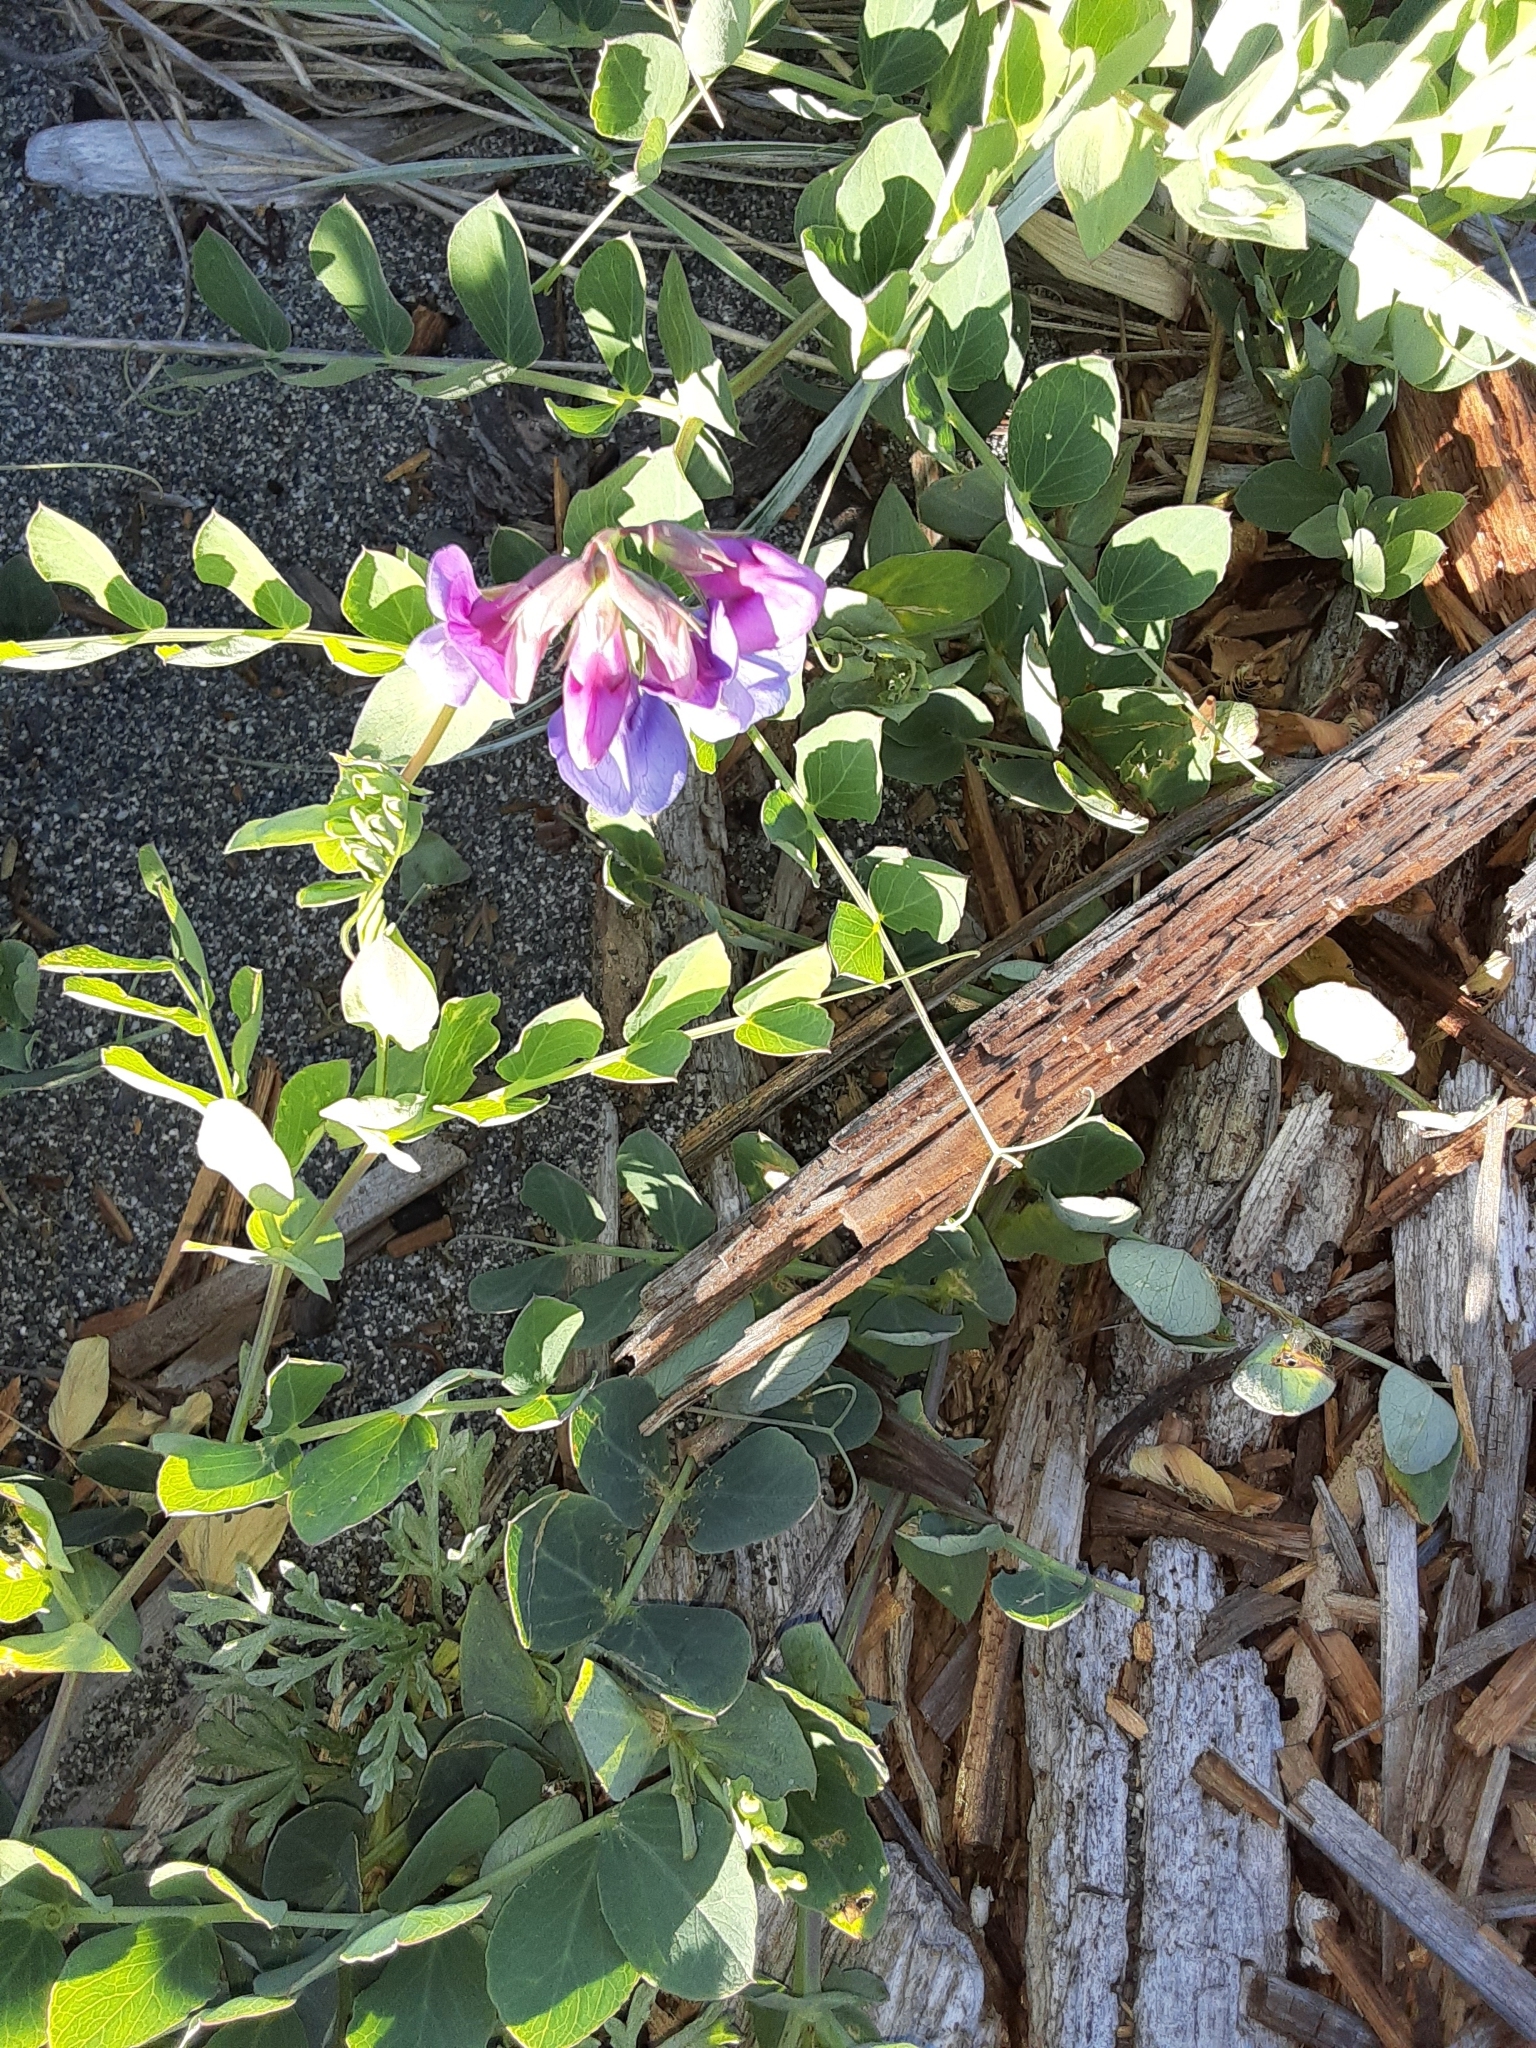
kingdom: Plantae
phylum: Tracheophyta
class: Magnoliopsida
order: Fabales
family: Fabaceae
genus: Lathyrus
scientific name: Lathyrus japonicus
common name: Sea pea
